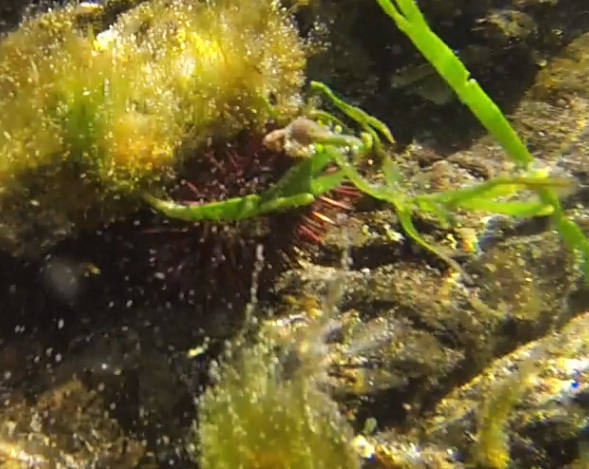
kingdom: Animalia
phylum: Echinodermata
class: Echinoidea
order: Camarodonta
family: Echinometridae
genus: Heliocidaris
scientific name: Heliocidaris erythrogramma
